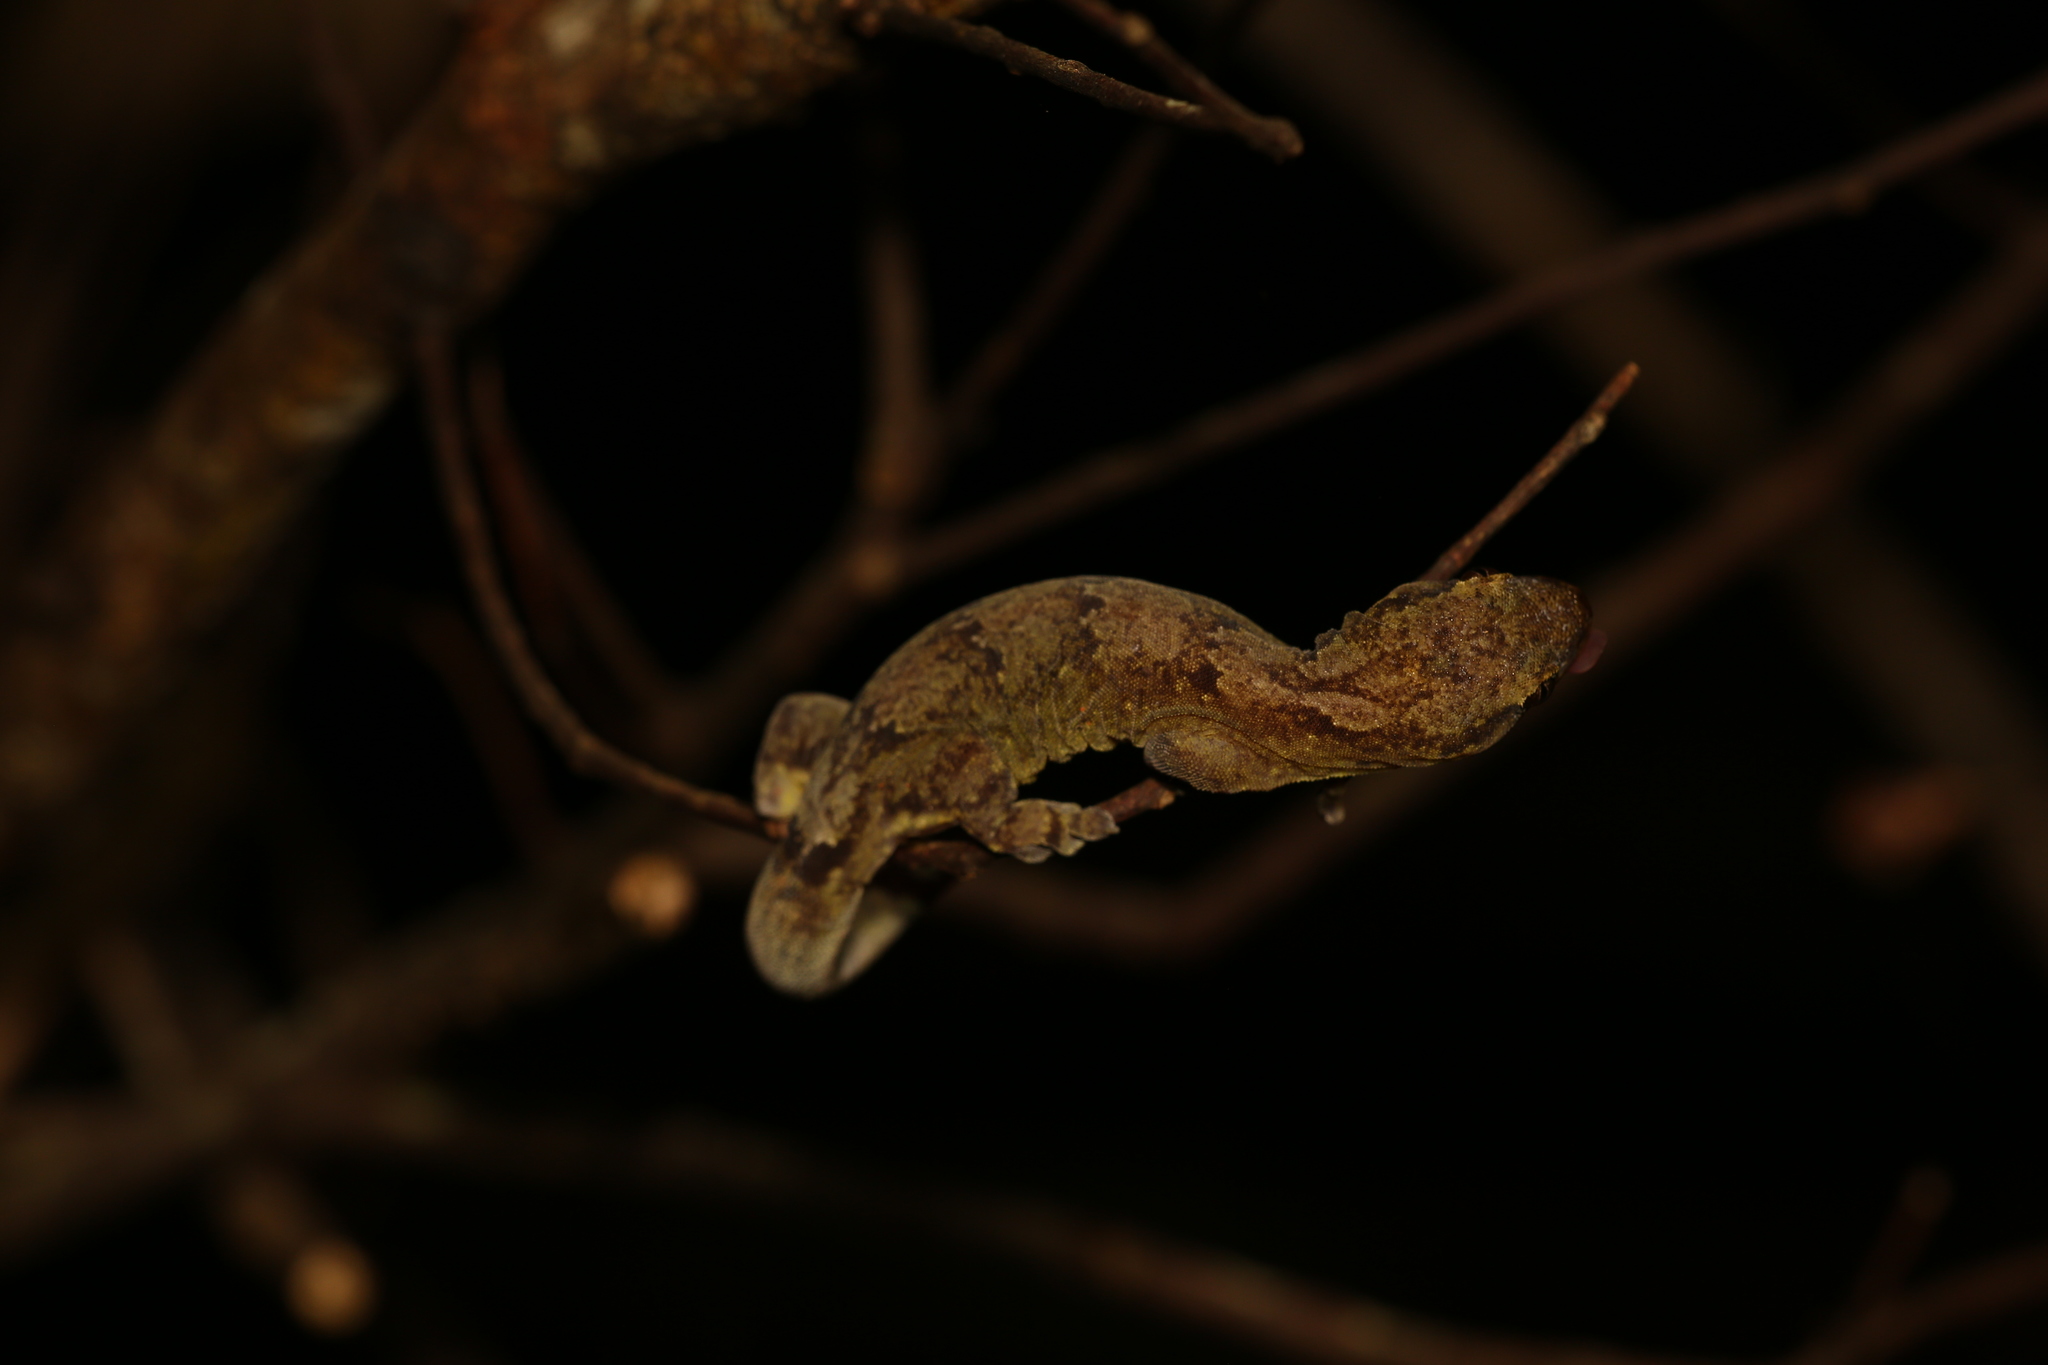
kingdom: Animalia
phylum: Chordata
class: Squamata
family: Diplodactylidae
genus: Bavayia
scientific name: Bavayia robusta
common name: Robust forest bavayia
